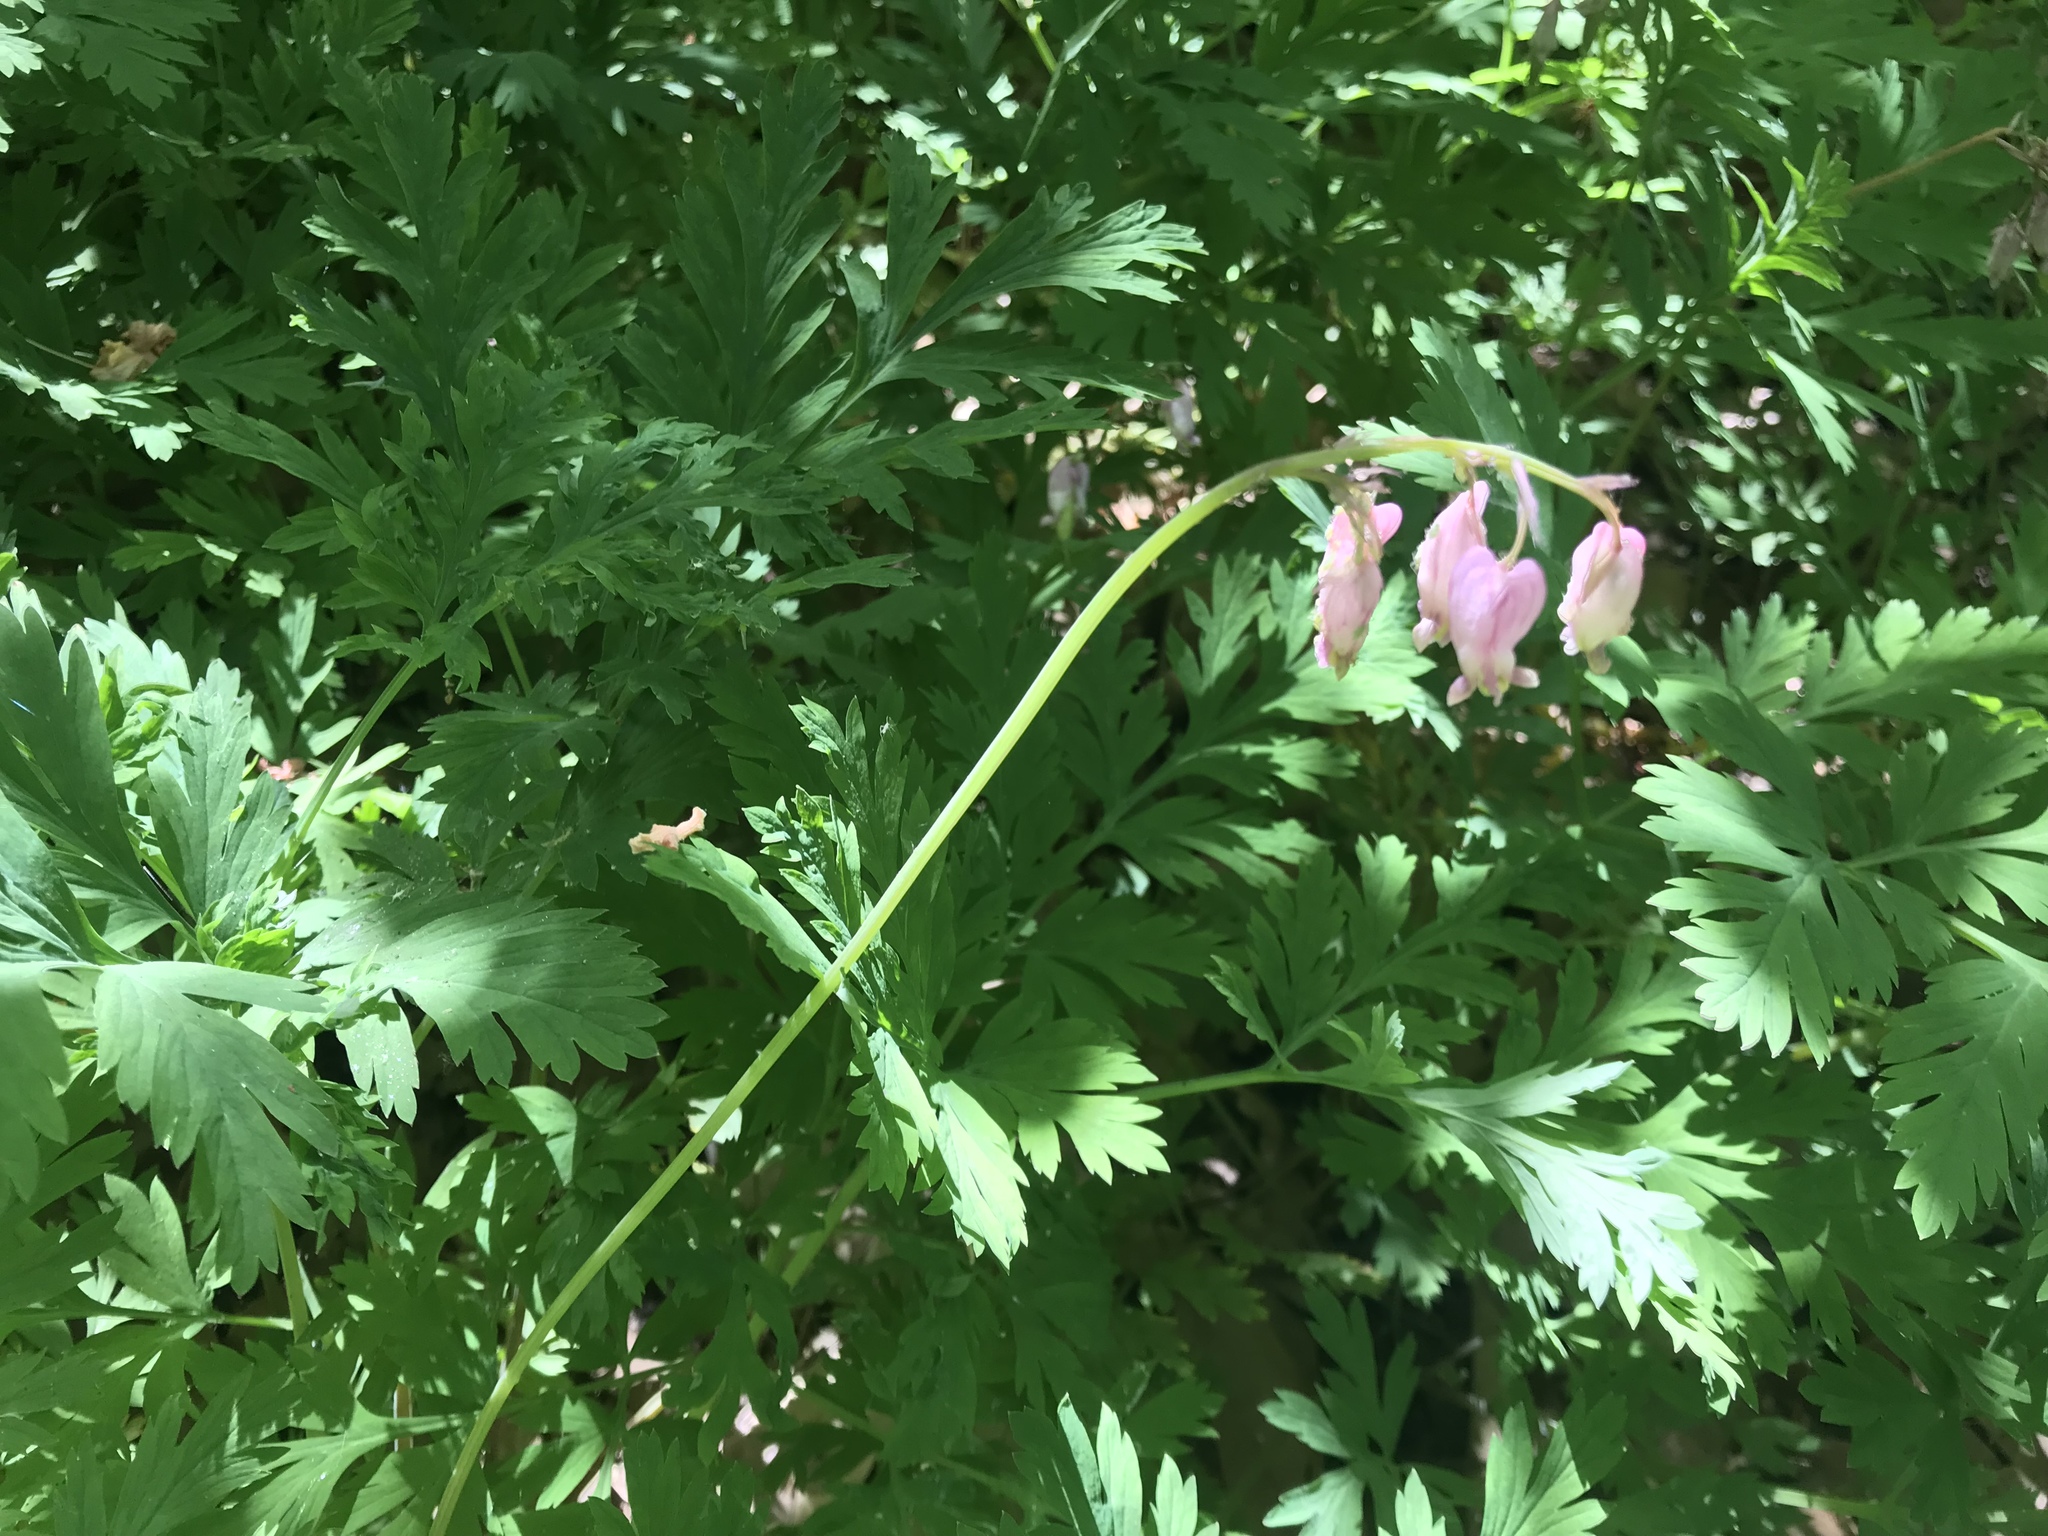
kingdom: Plantae
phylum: Tracheophyta
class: Magnoliopsida
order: Ranunculales
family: Papaveraceae
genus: Dicentra
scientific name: Dicentra formosa
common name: Bleeding-heart
